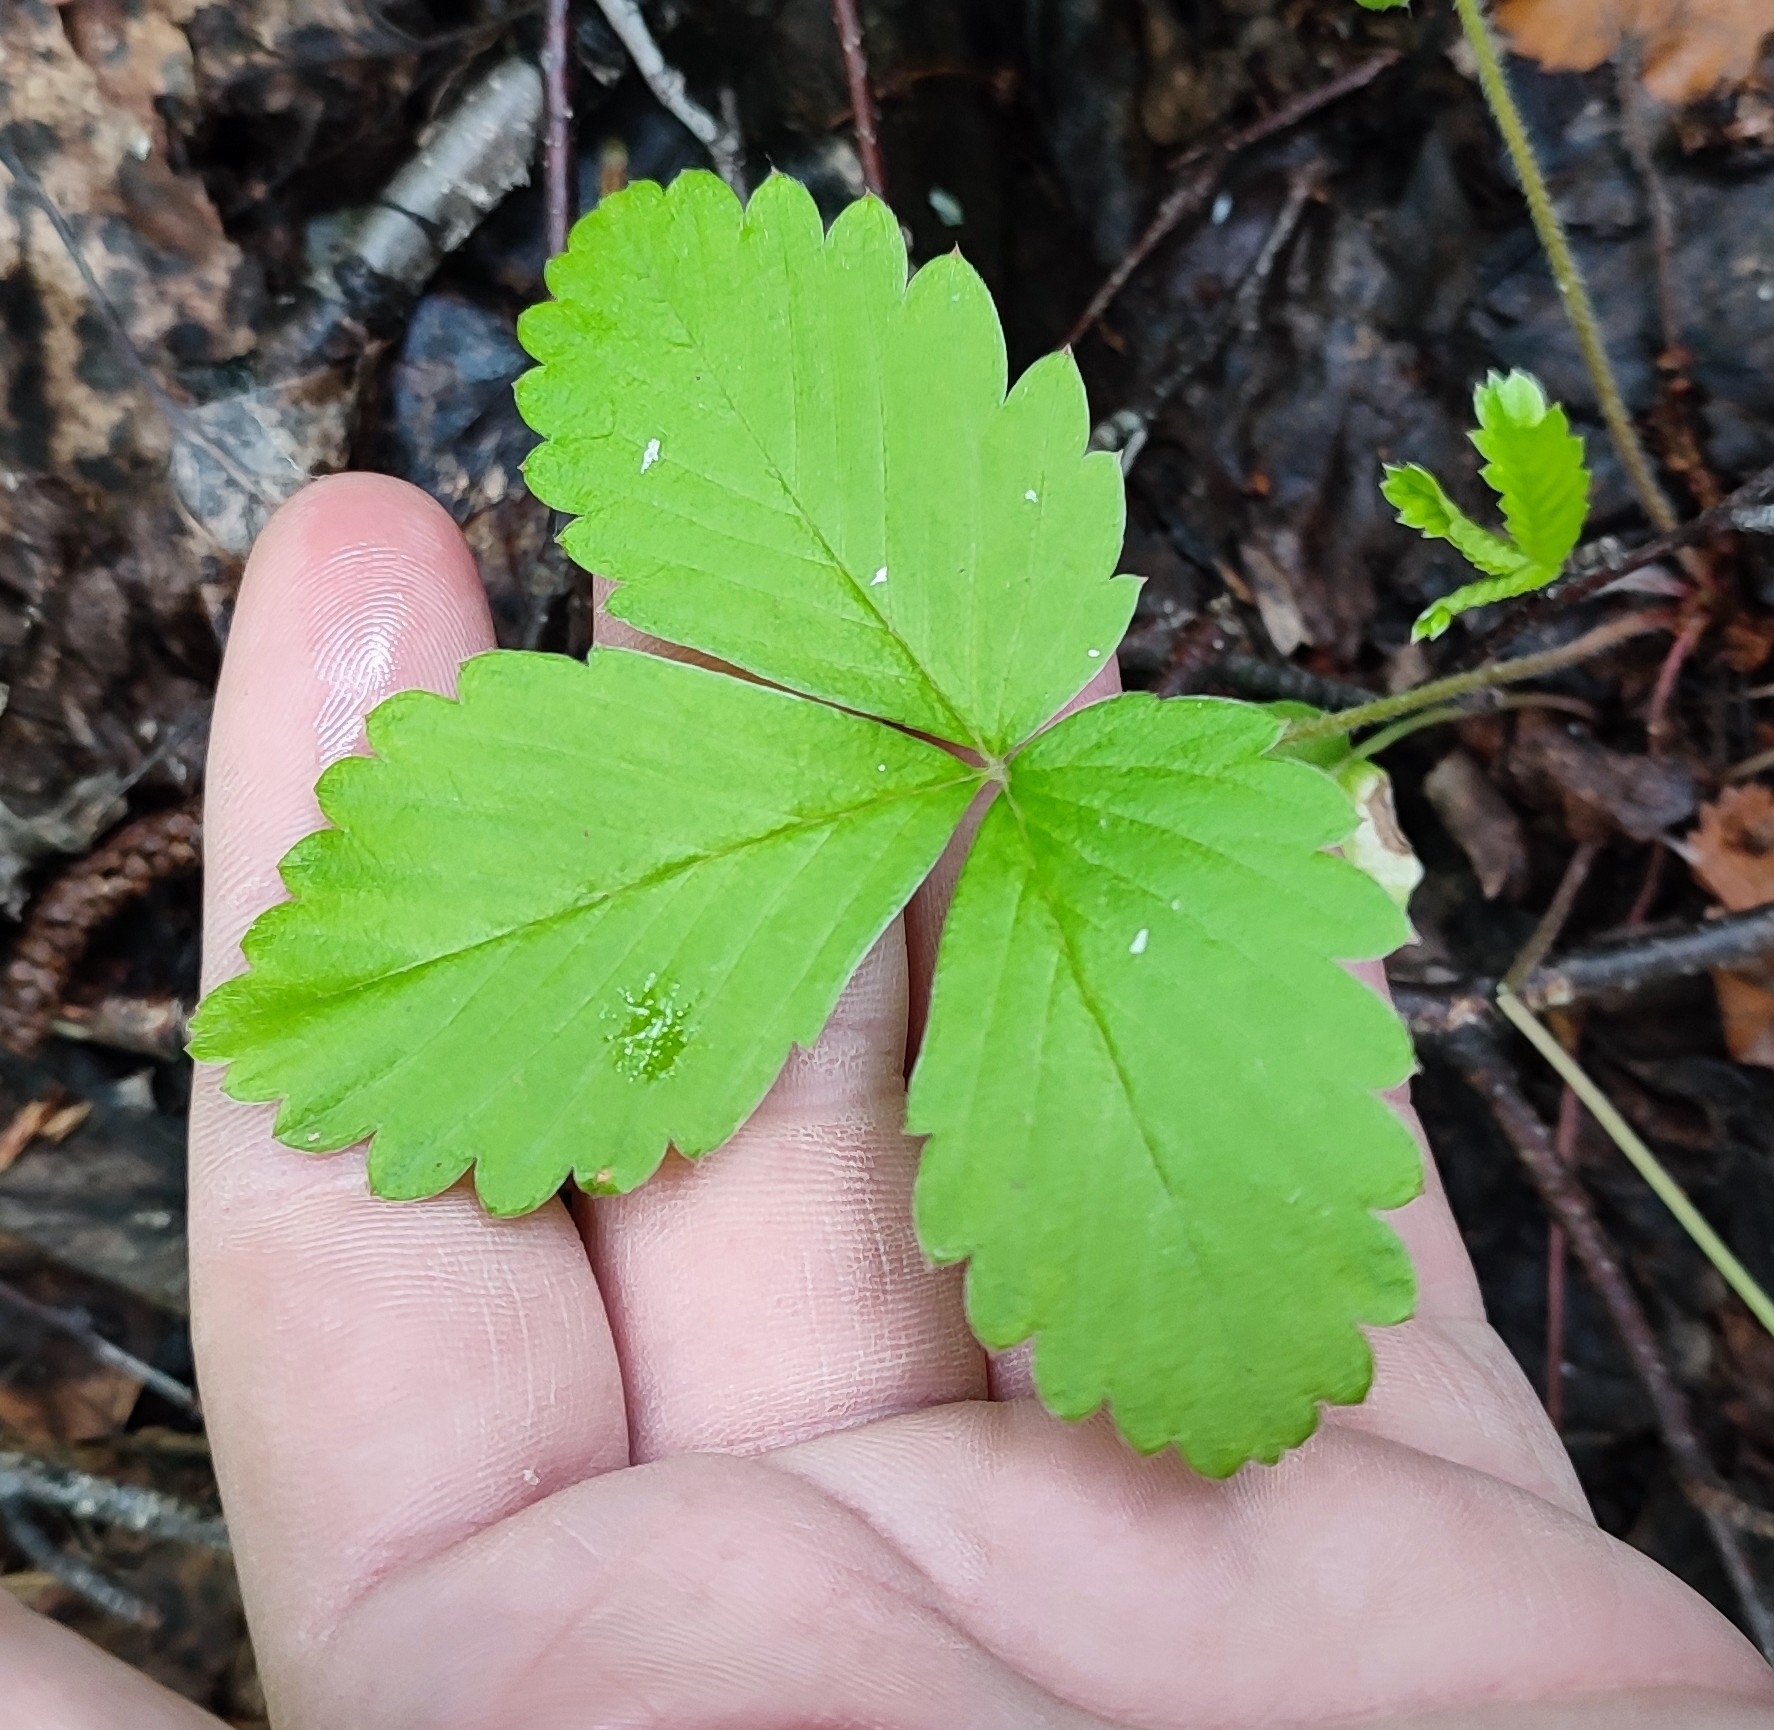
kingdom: Plantae
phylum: Tracheophyta
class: Magnoliopsida
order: Rosales
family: Rosaceae
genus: Fragaria
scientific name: Fragaria vesca
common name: Wild strawberry
